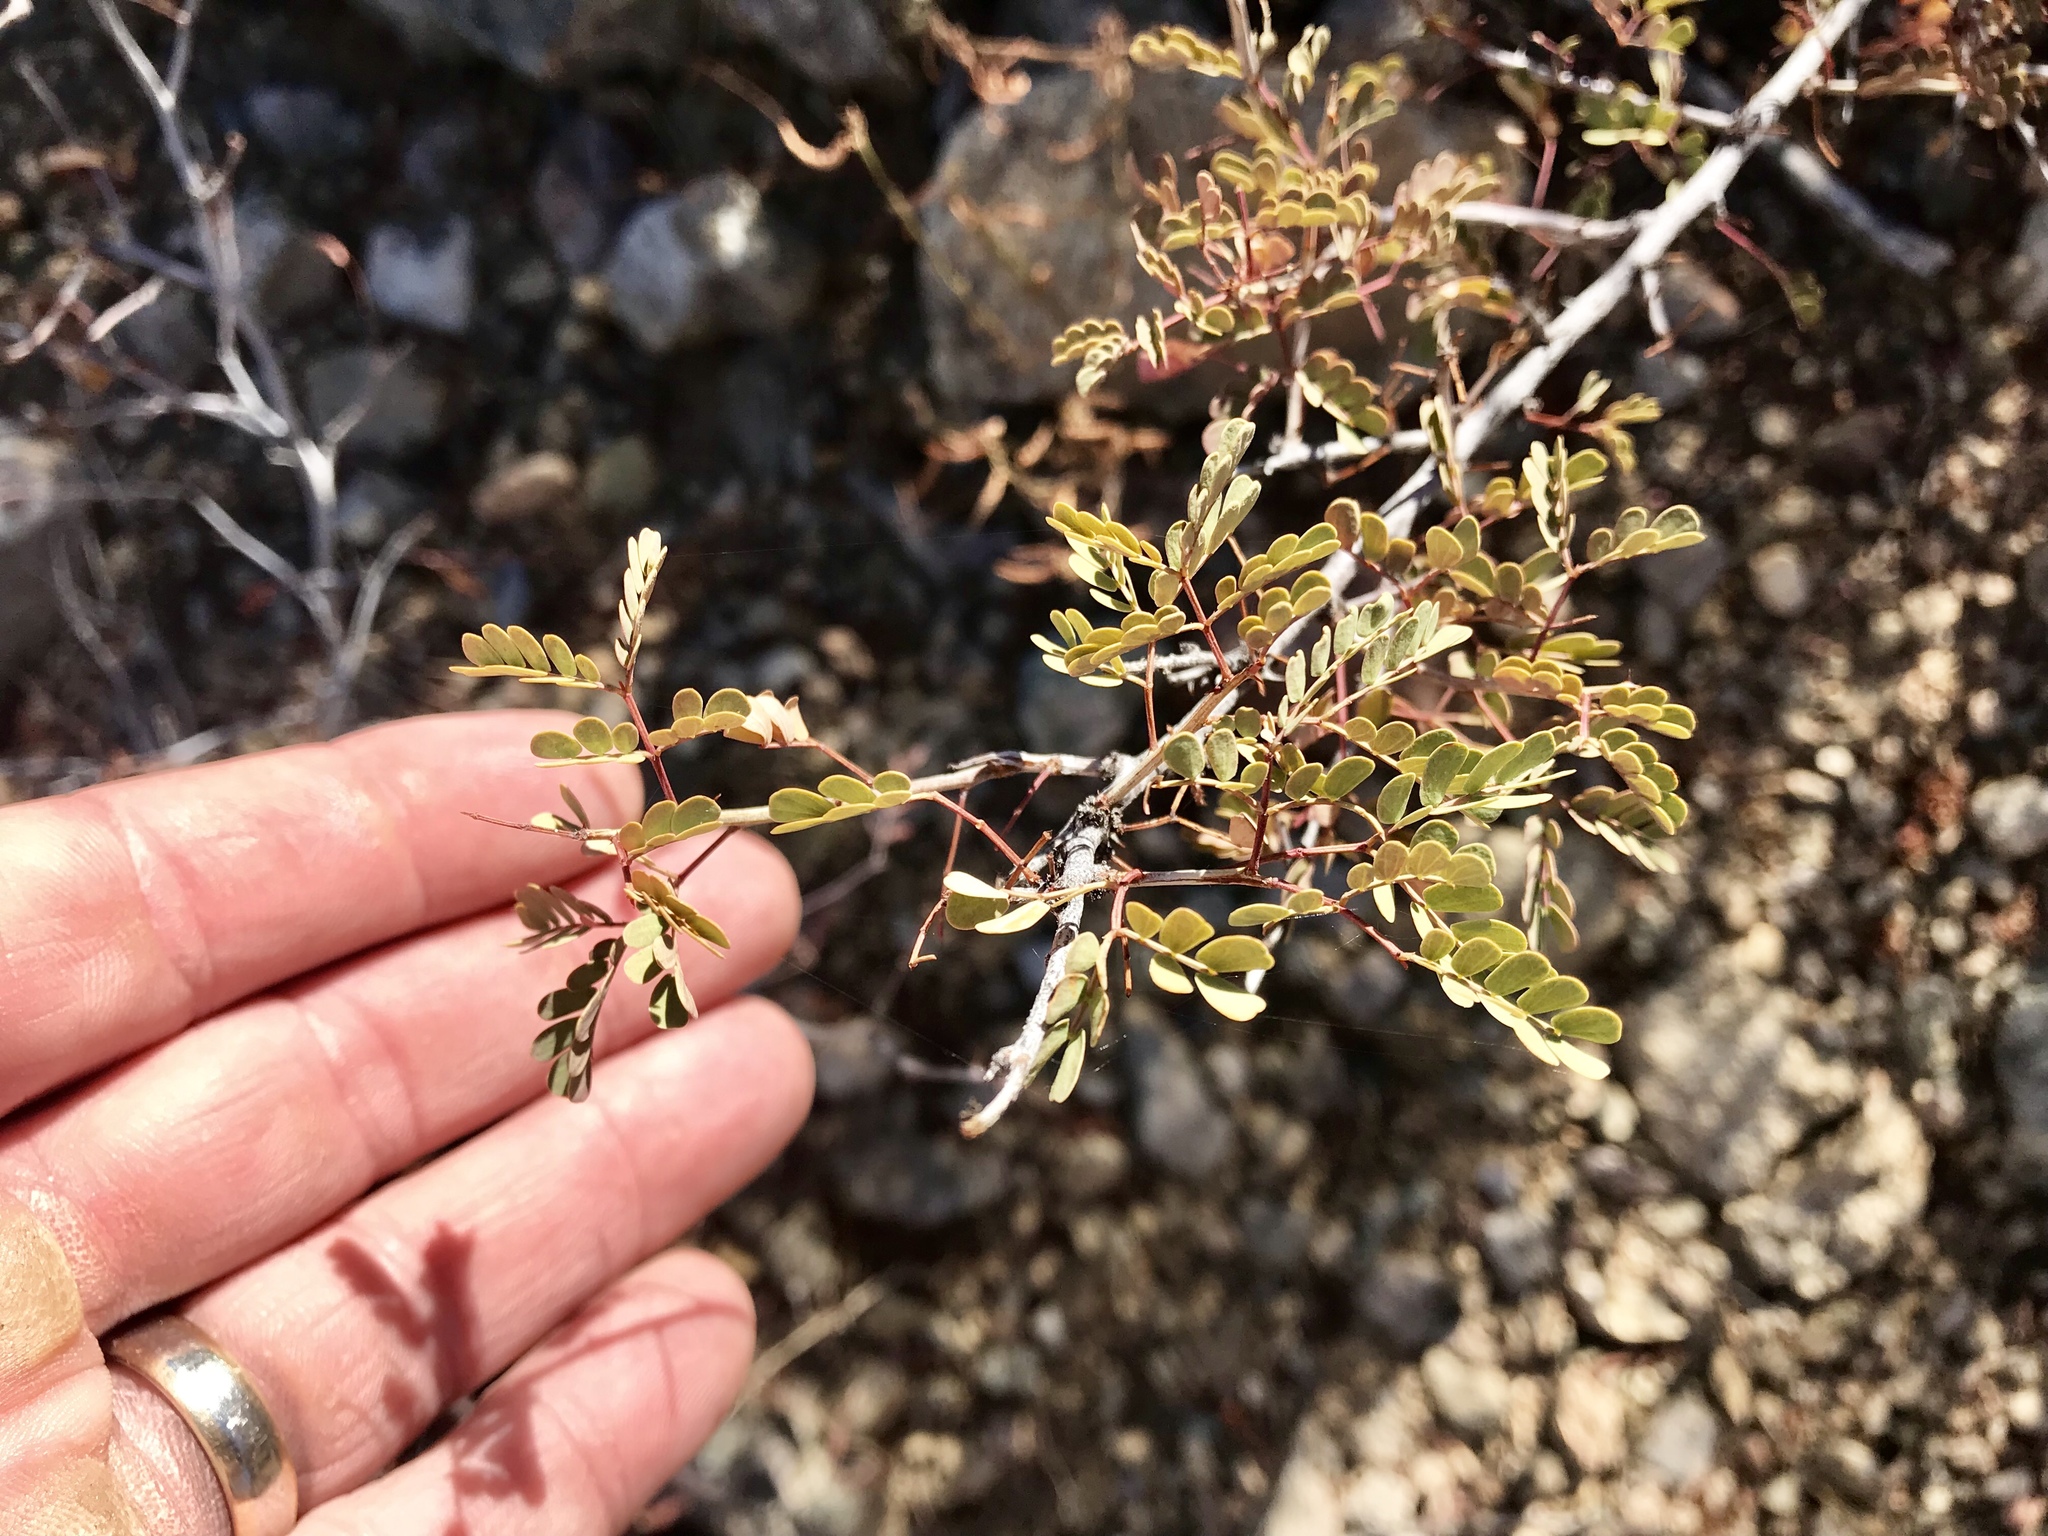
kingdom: Plantae
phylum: Tracheophyta
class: Magnoliopsida
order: Fabales
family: Fabaceae
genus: Senegalia
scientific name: Senegalia greggii
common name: Texas-mimosa
